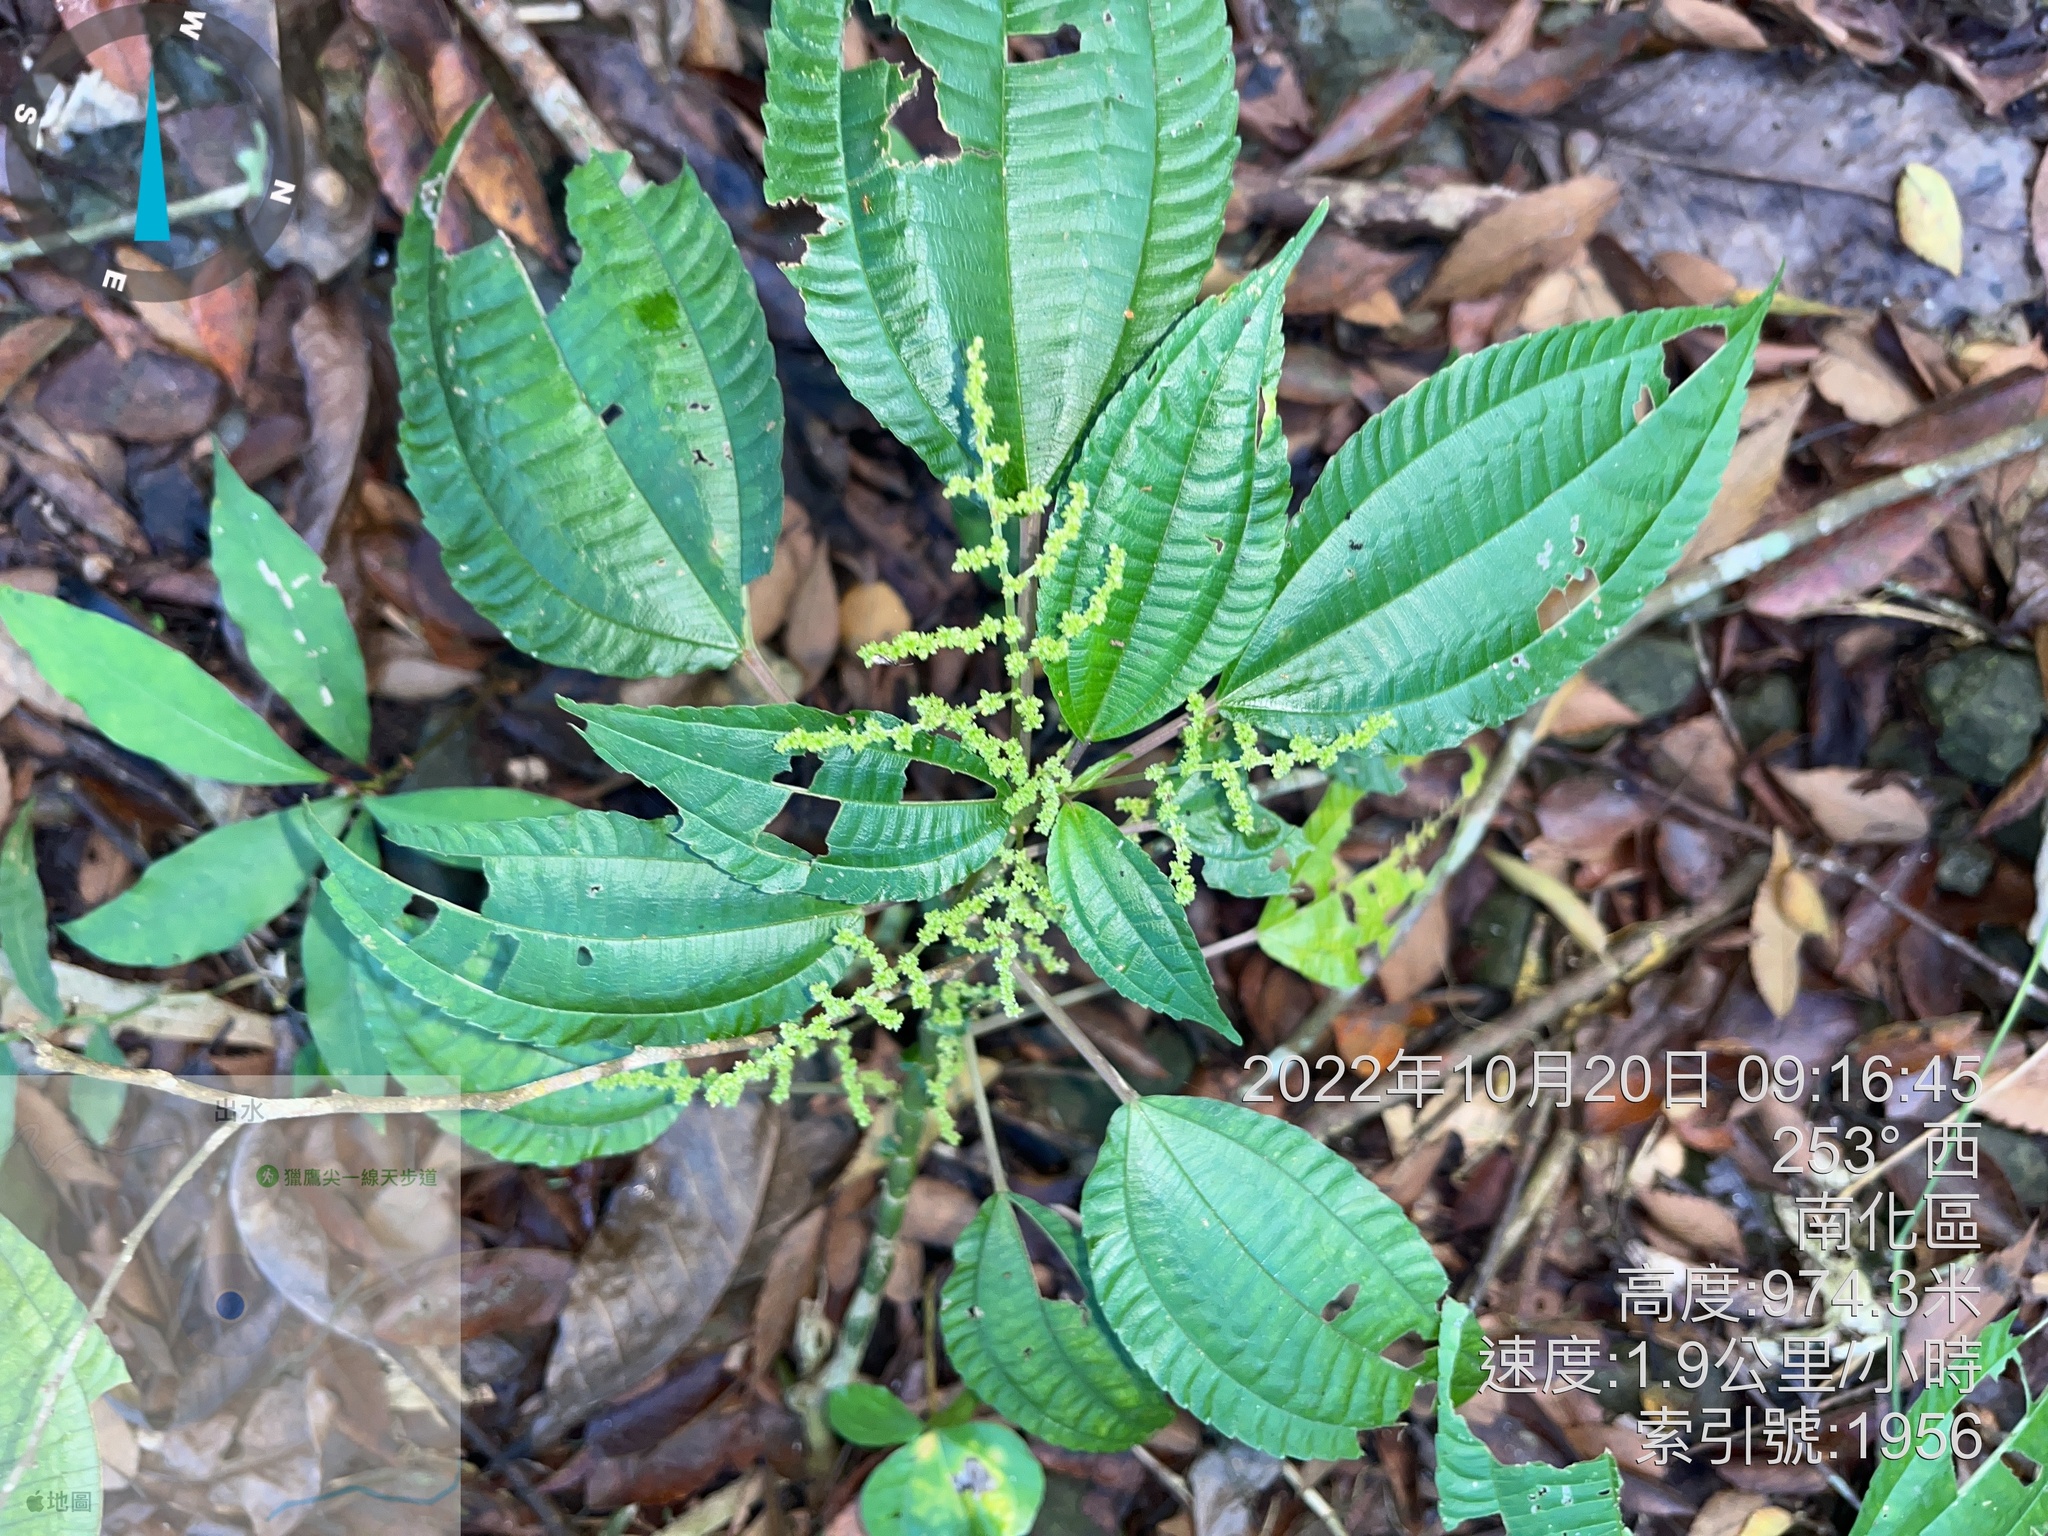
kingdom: Plantae
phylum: Tracheophyta
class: Magnoliopsida
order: Rosales
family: Urticaceae
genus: Pilea
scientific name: Pilea melastomoides
